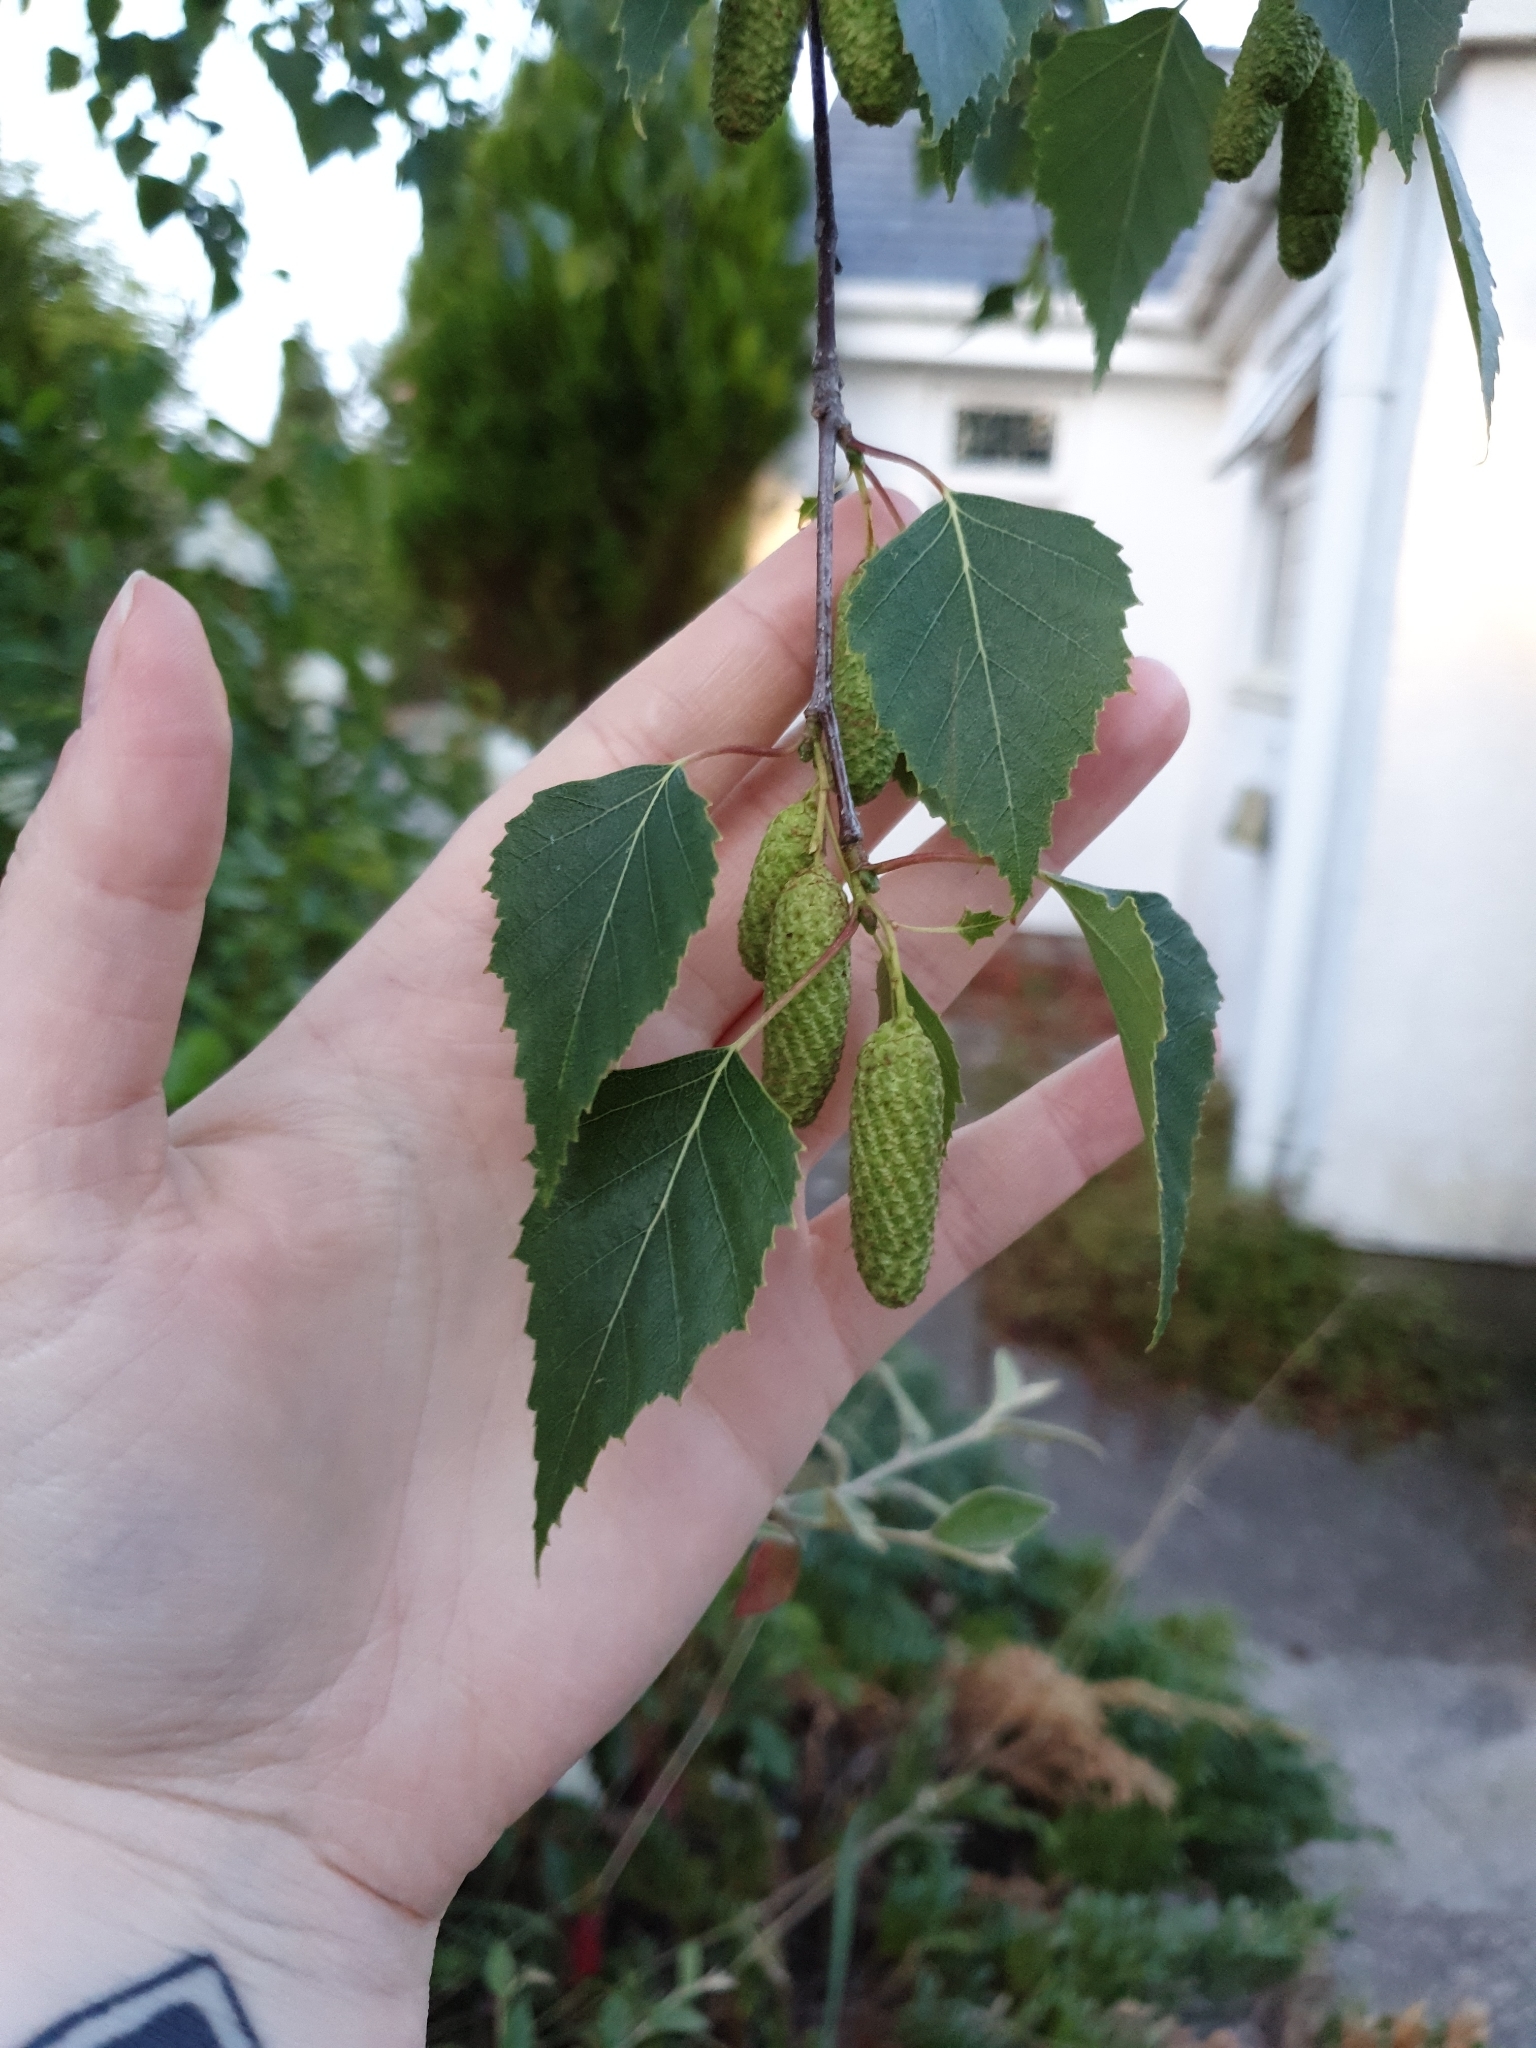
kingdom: Plantae
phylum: Tracheophyta
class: Magnoliopsida
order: Fagales
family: Betulaceae
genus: Betula
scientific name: Betula pendula
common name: Silver birch
